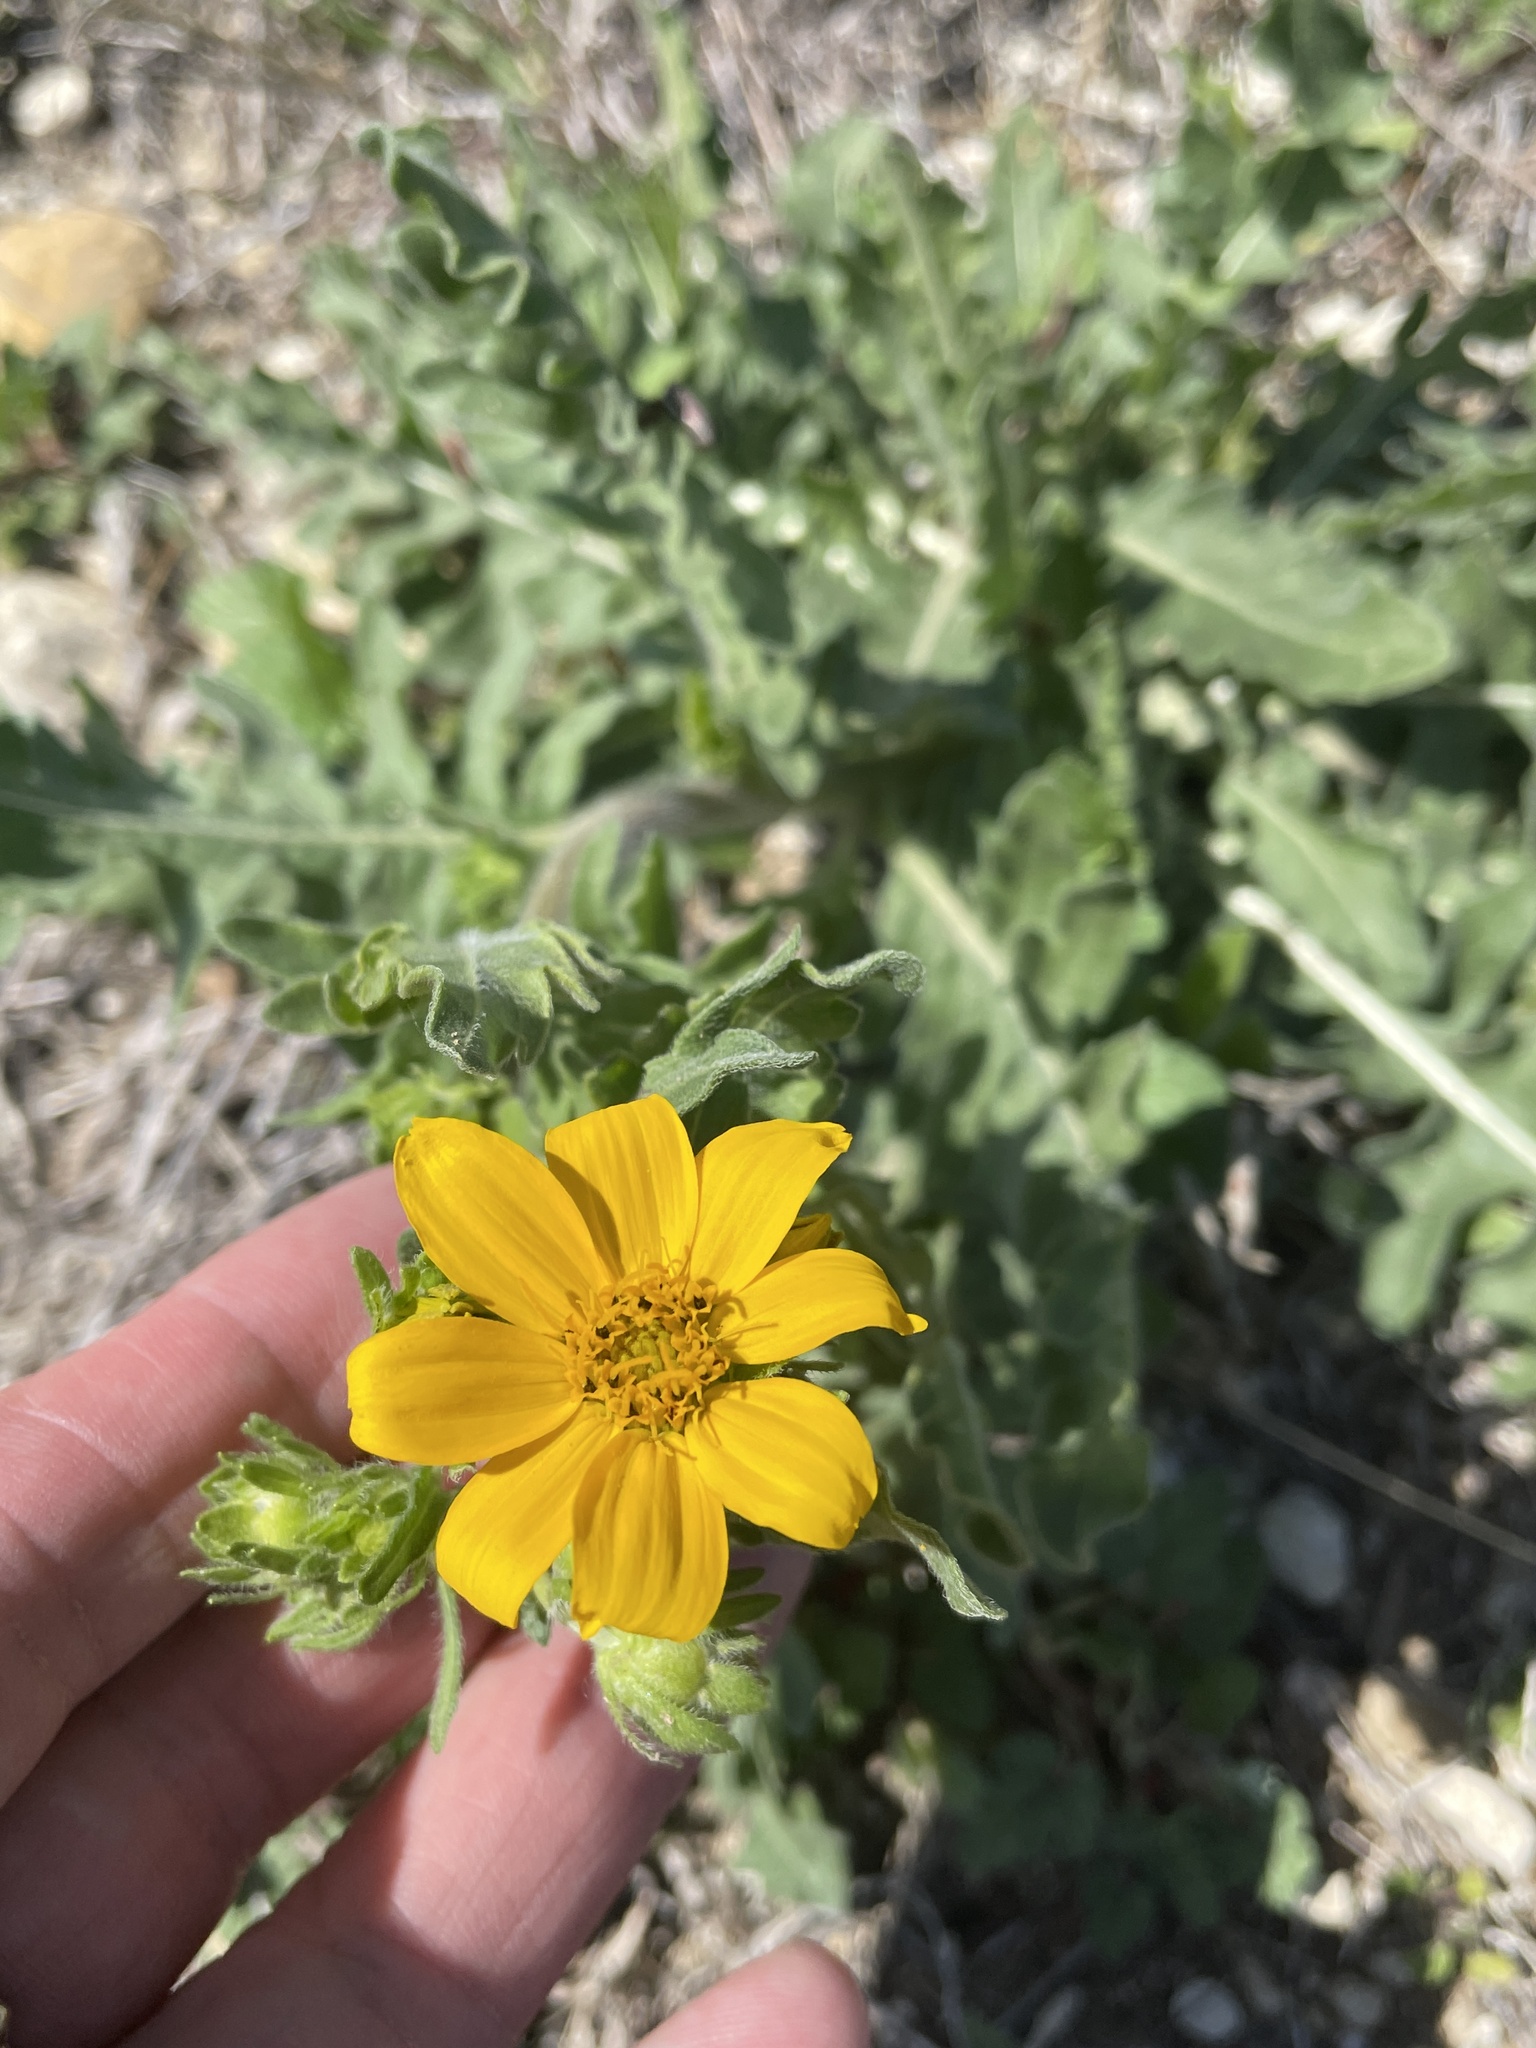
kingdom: Plantae
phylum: Tracheophyta
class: Magnoliopsida
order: Asterales
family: Asteraceae
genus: Engelmannia
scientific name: Engelmannia peristenia
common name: Engelmann's daisy
